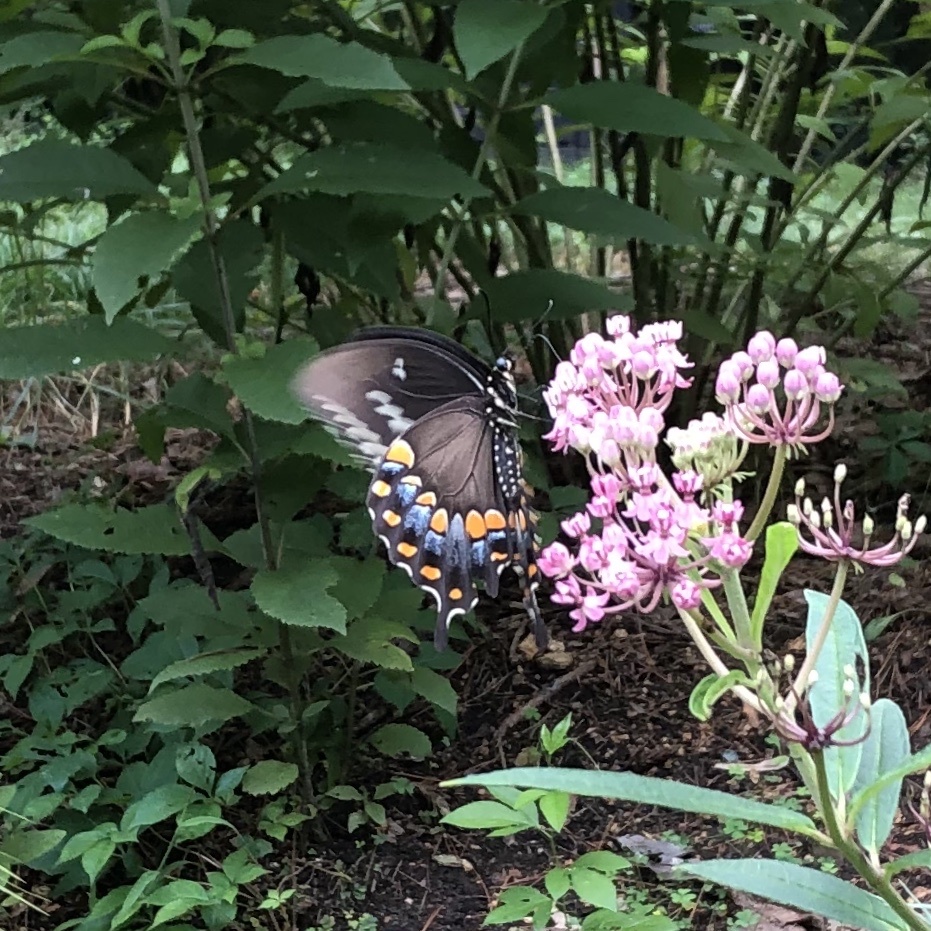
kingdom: Animalia
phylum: Arthropoda
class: Insecta
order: Lepidoptera
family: Papilionidae
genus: Papilio
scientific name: Papilio troilus
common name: Spicebush swallowtail
